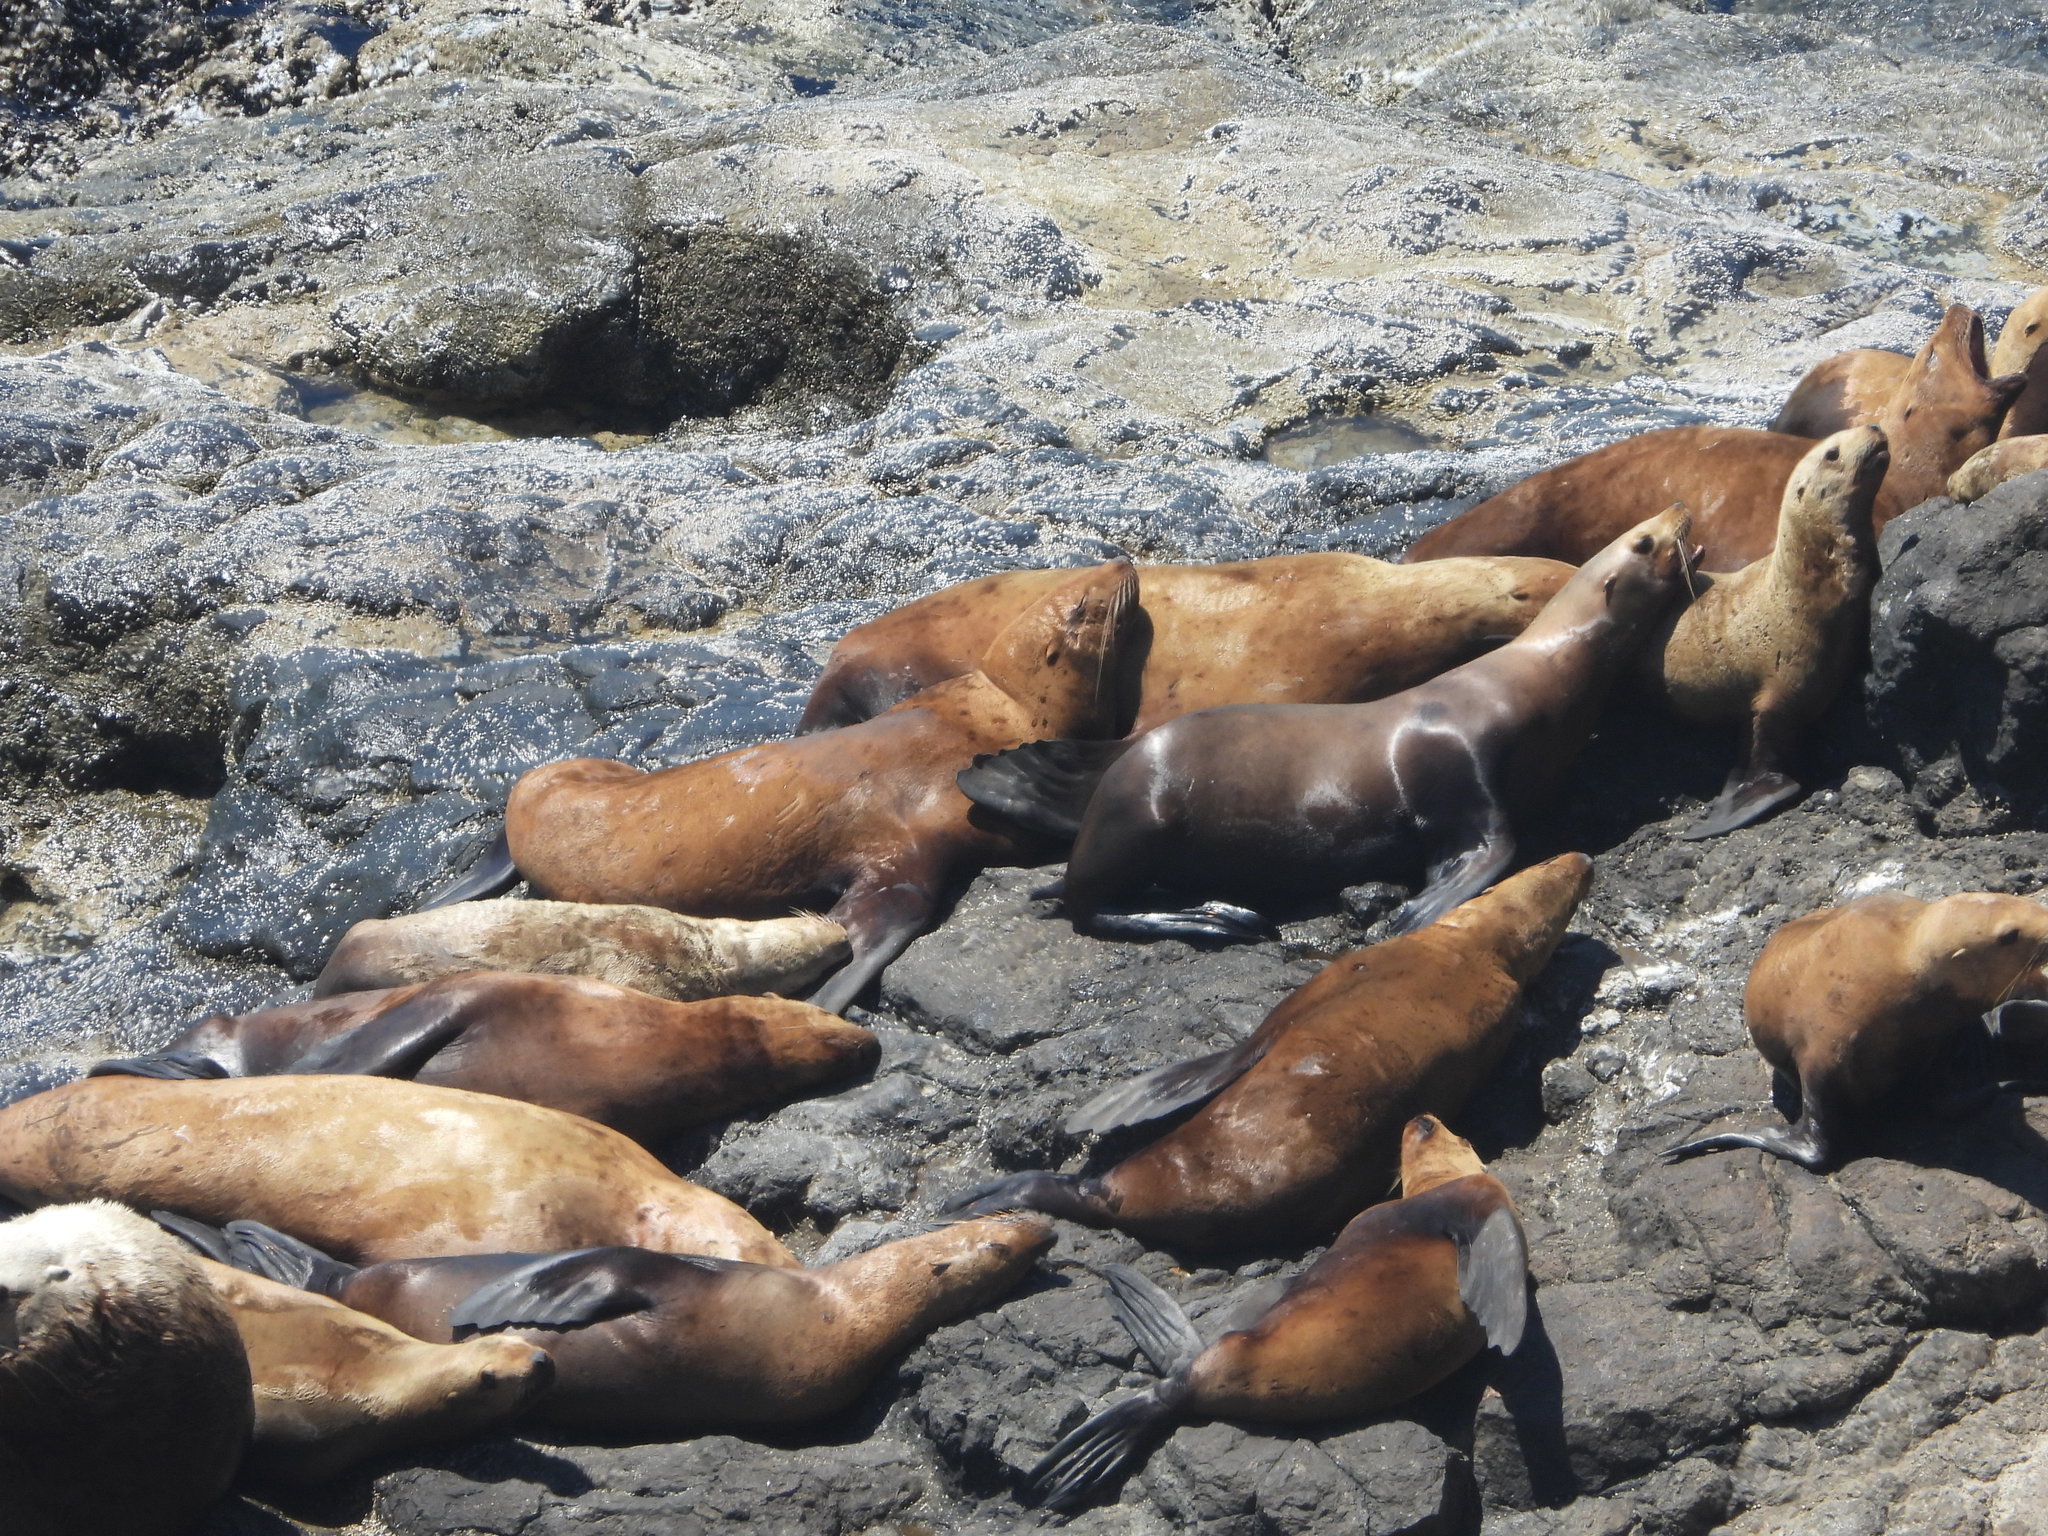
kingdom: Animalia
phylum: Chordata
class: Mammalia
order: Carnivora
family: Otariidae
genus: Eumetopias
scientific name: Eumetopias jubatus
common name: Steller sea lion
